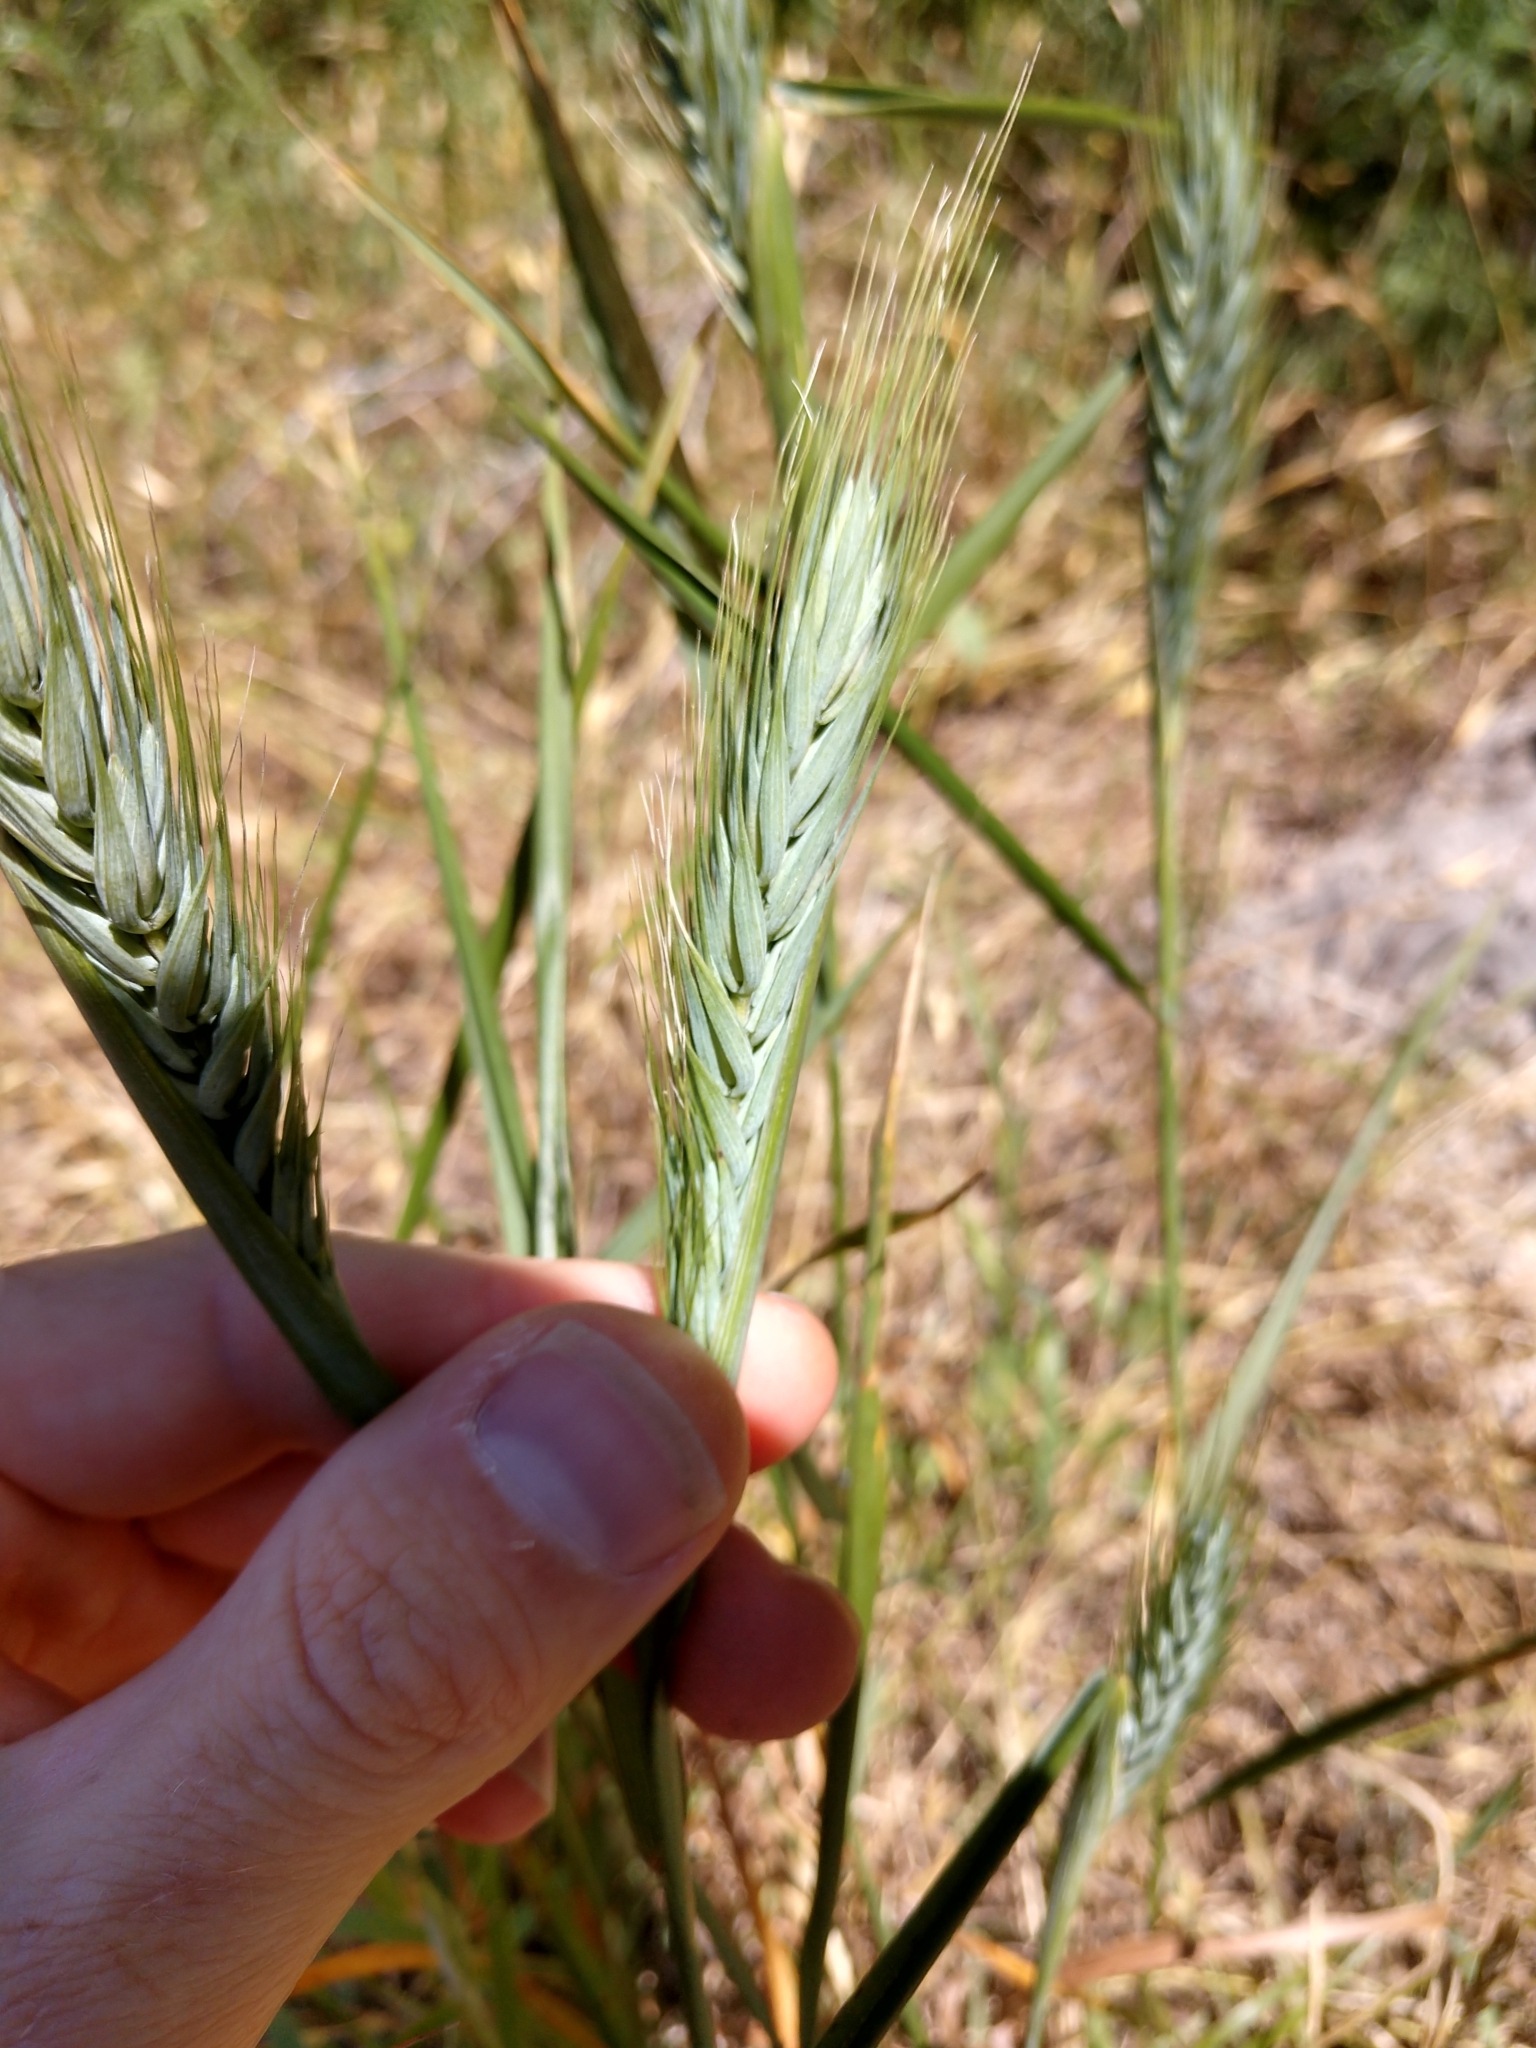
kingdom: Plantae
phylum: Tracheophyta
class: Liliopsida
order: Poales
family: Poaceae
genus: Elymus
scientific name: Elymus virginicus
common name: Common eastern wildrye
